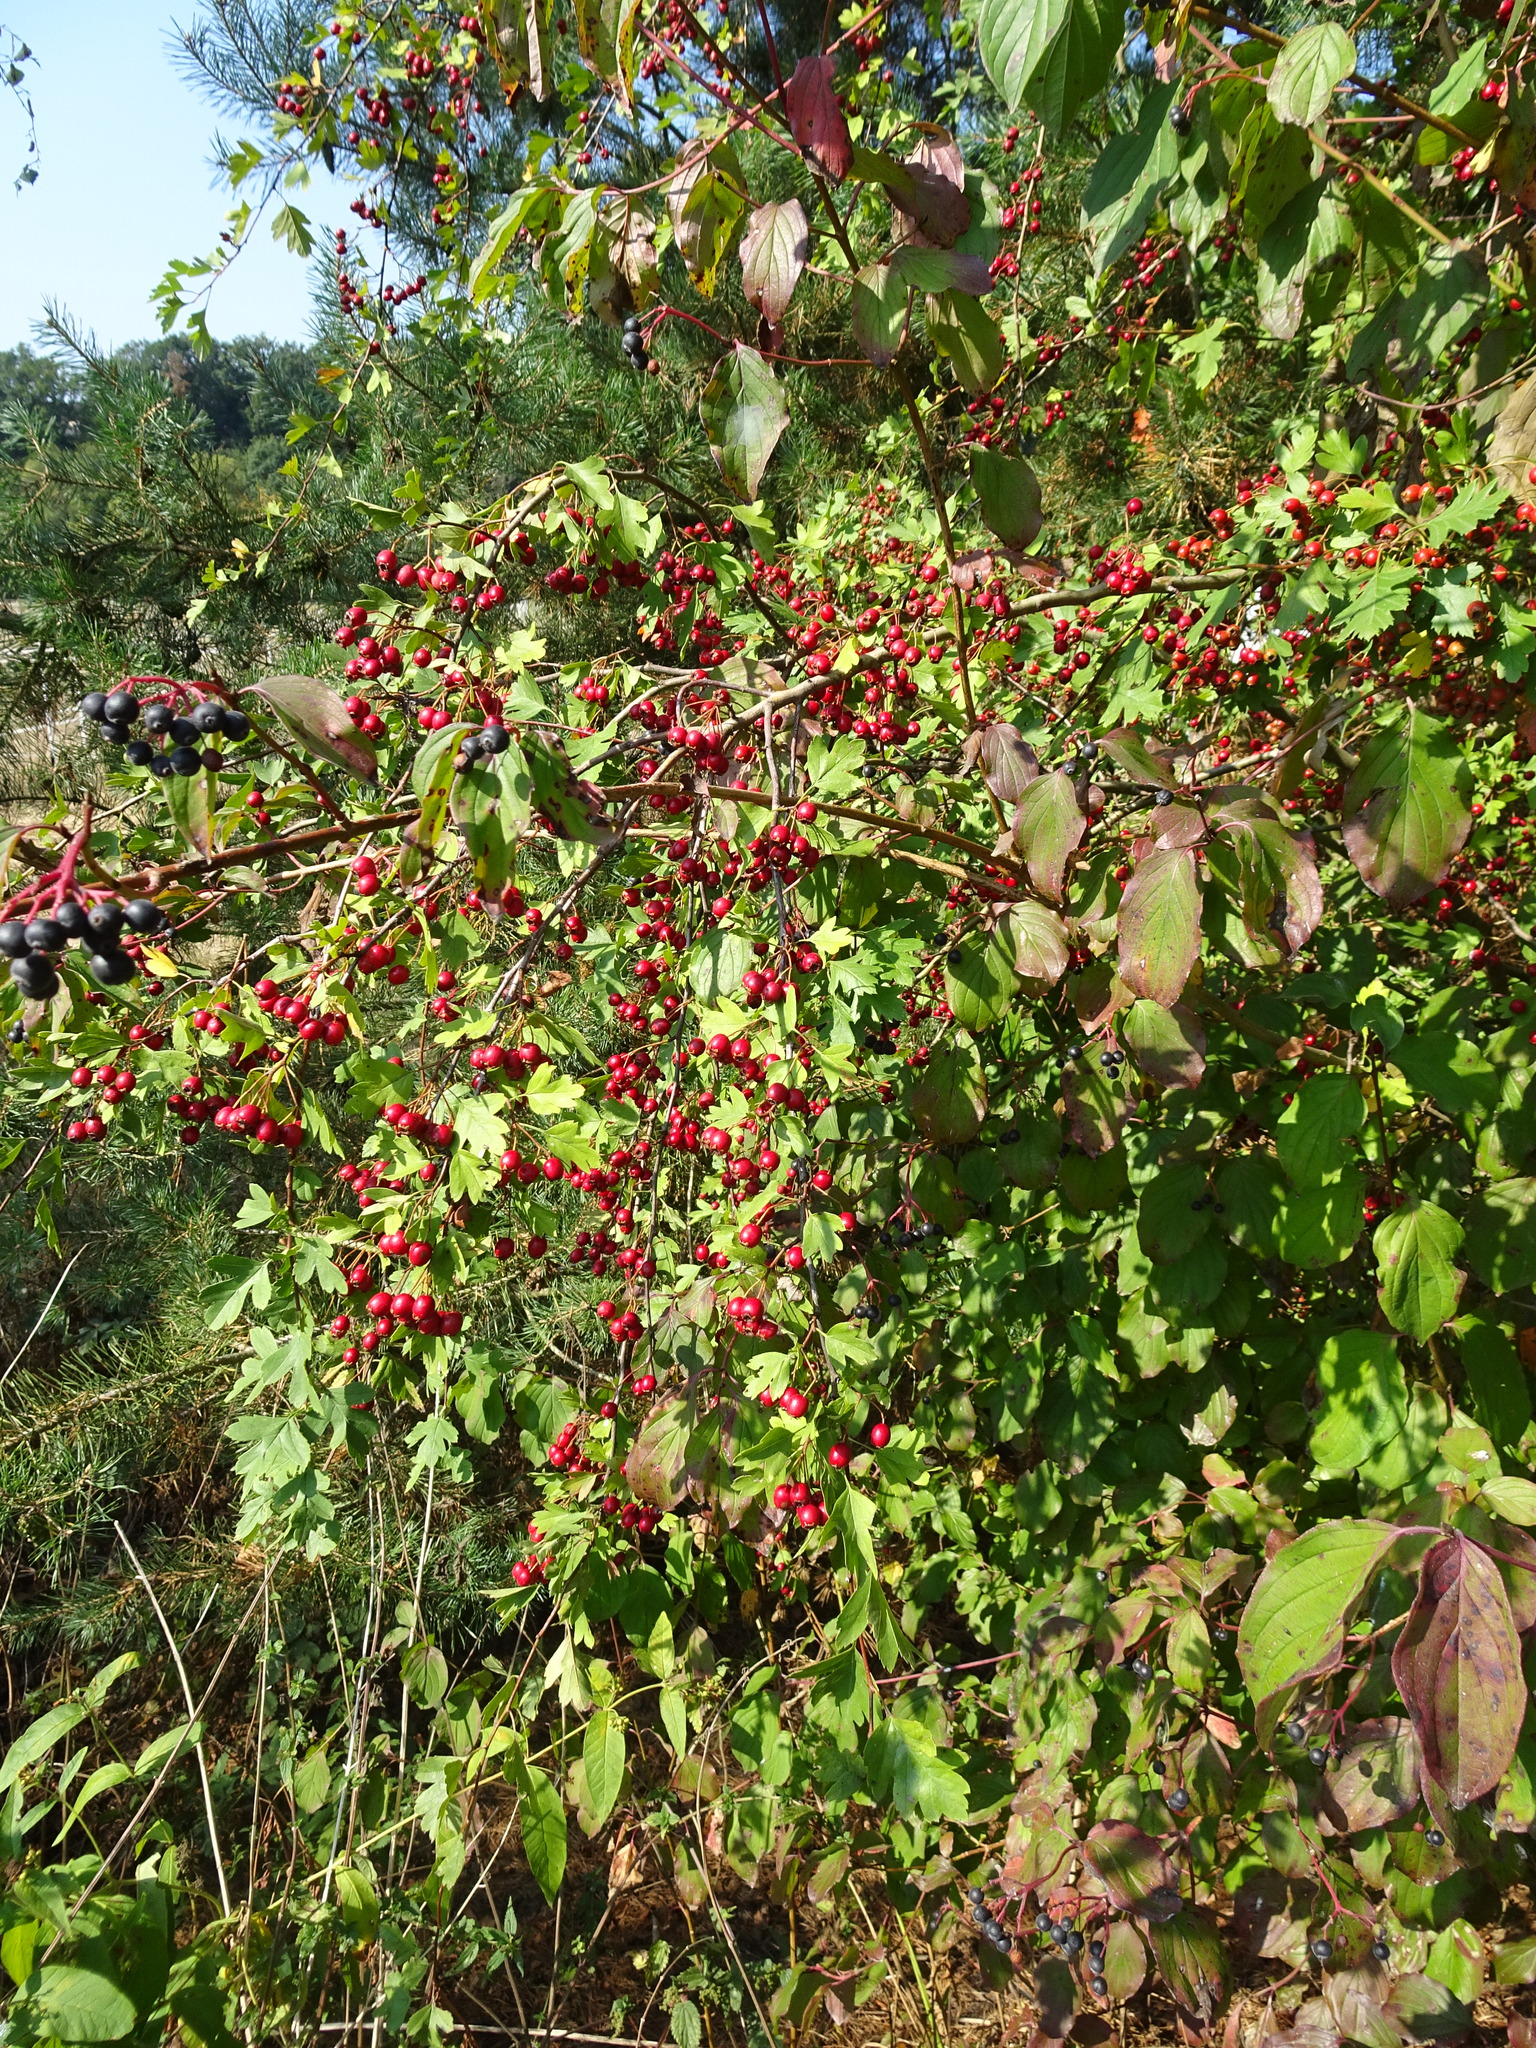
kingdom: Plantae
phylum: Tracheophyta
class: Magnoliopsida
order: Rosales
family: Rosaceae
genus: Crataegus
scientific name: Crataegus monogyna
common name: Hawthorn
